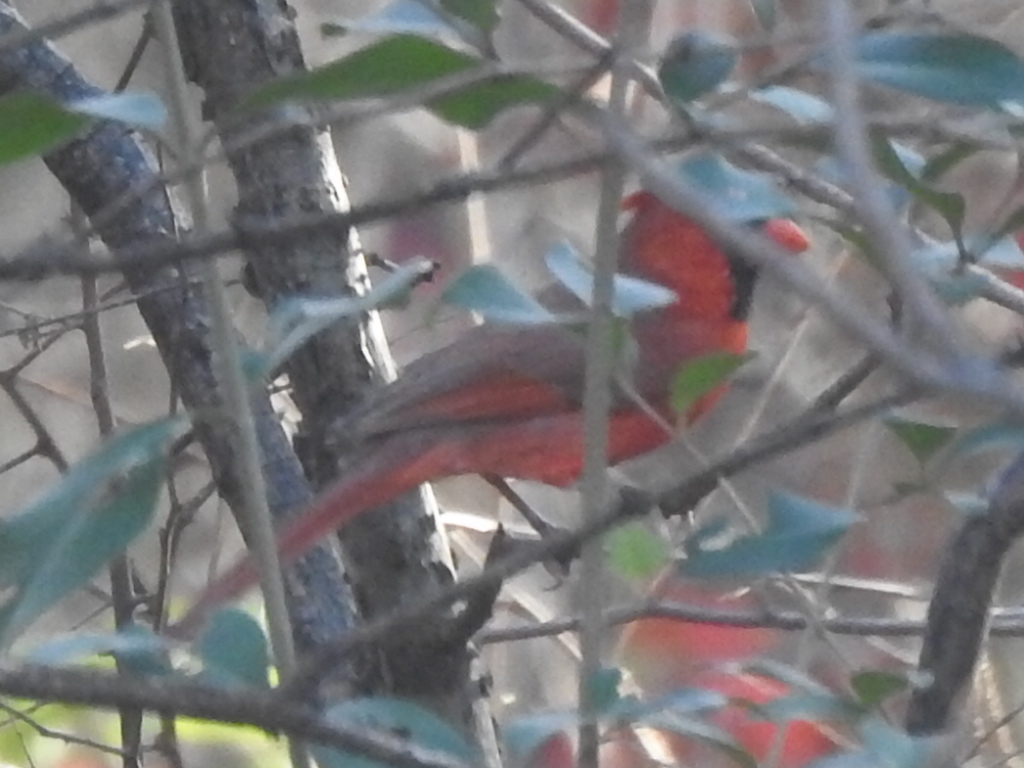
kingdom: Animalia
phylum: Chordata
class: Aves
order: Passeriformes
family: Cardinalidae
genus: Cardinalis
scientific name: Cardinalis cardinalis
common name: Northern cardinal
